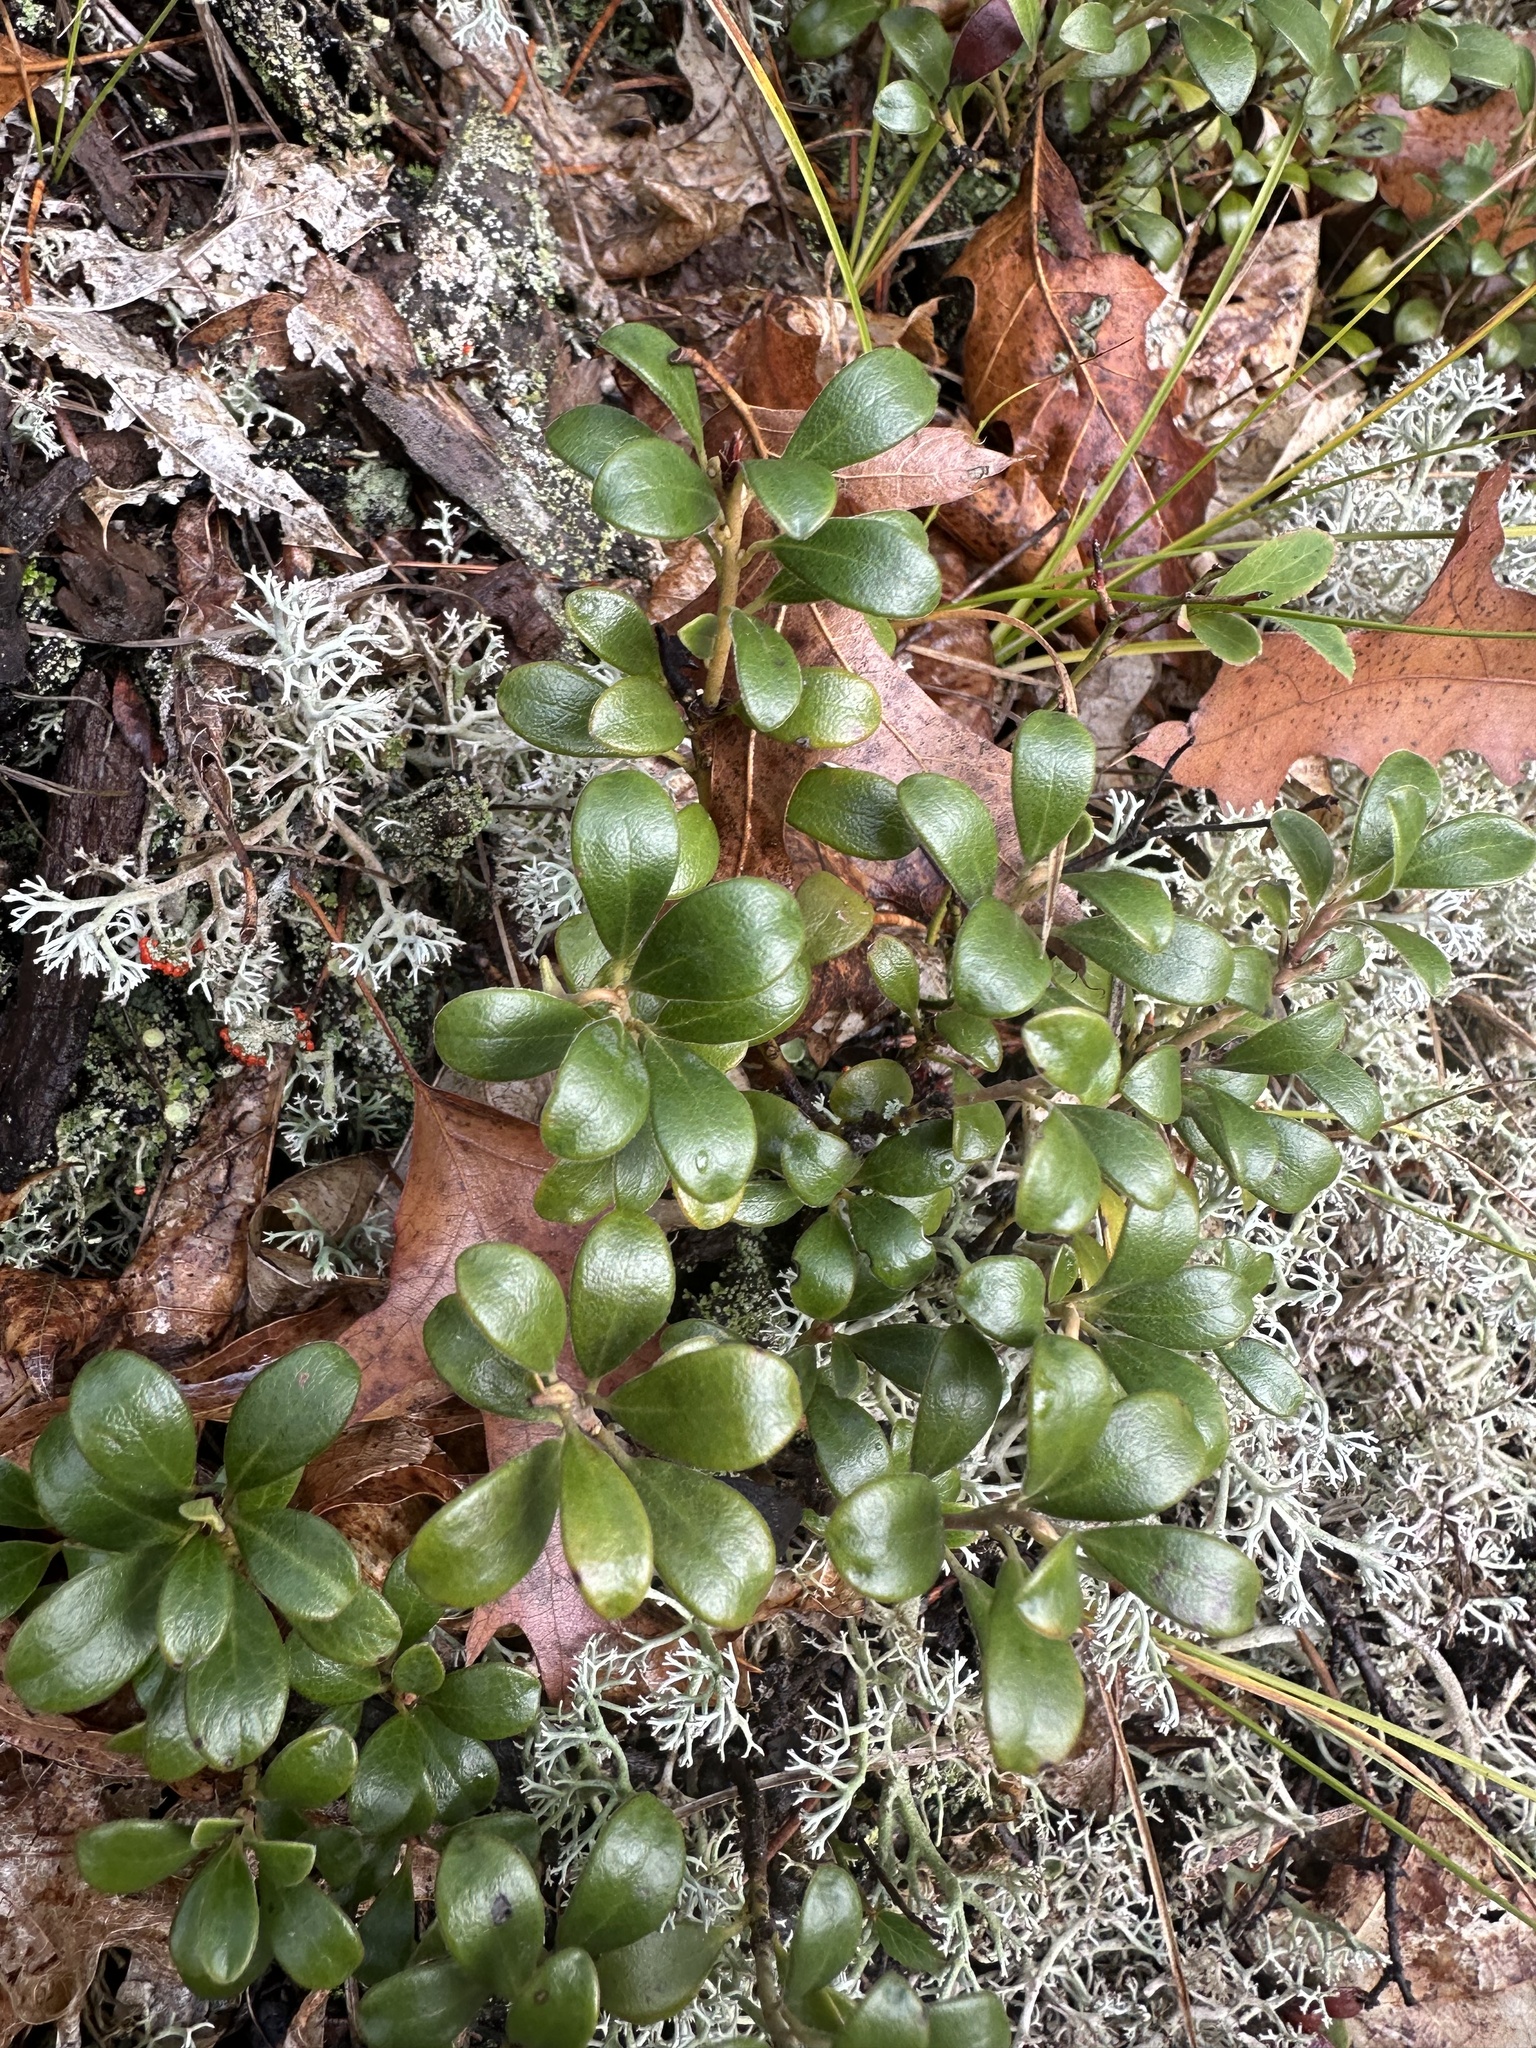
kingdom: Plantae
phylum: Tracheophyta
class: Magnoliopsida
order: Ericales
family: Ericaceae
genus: Arctostaphylos
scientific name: Arctostaphylos uva-ursi
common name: Bearberry
